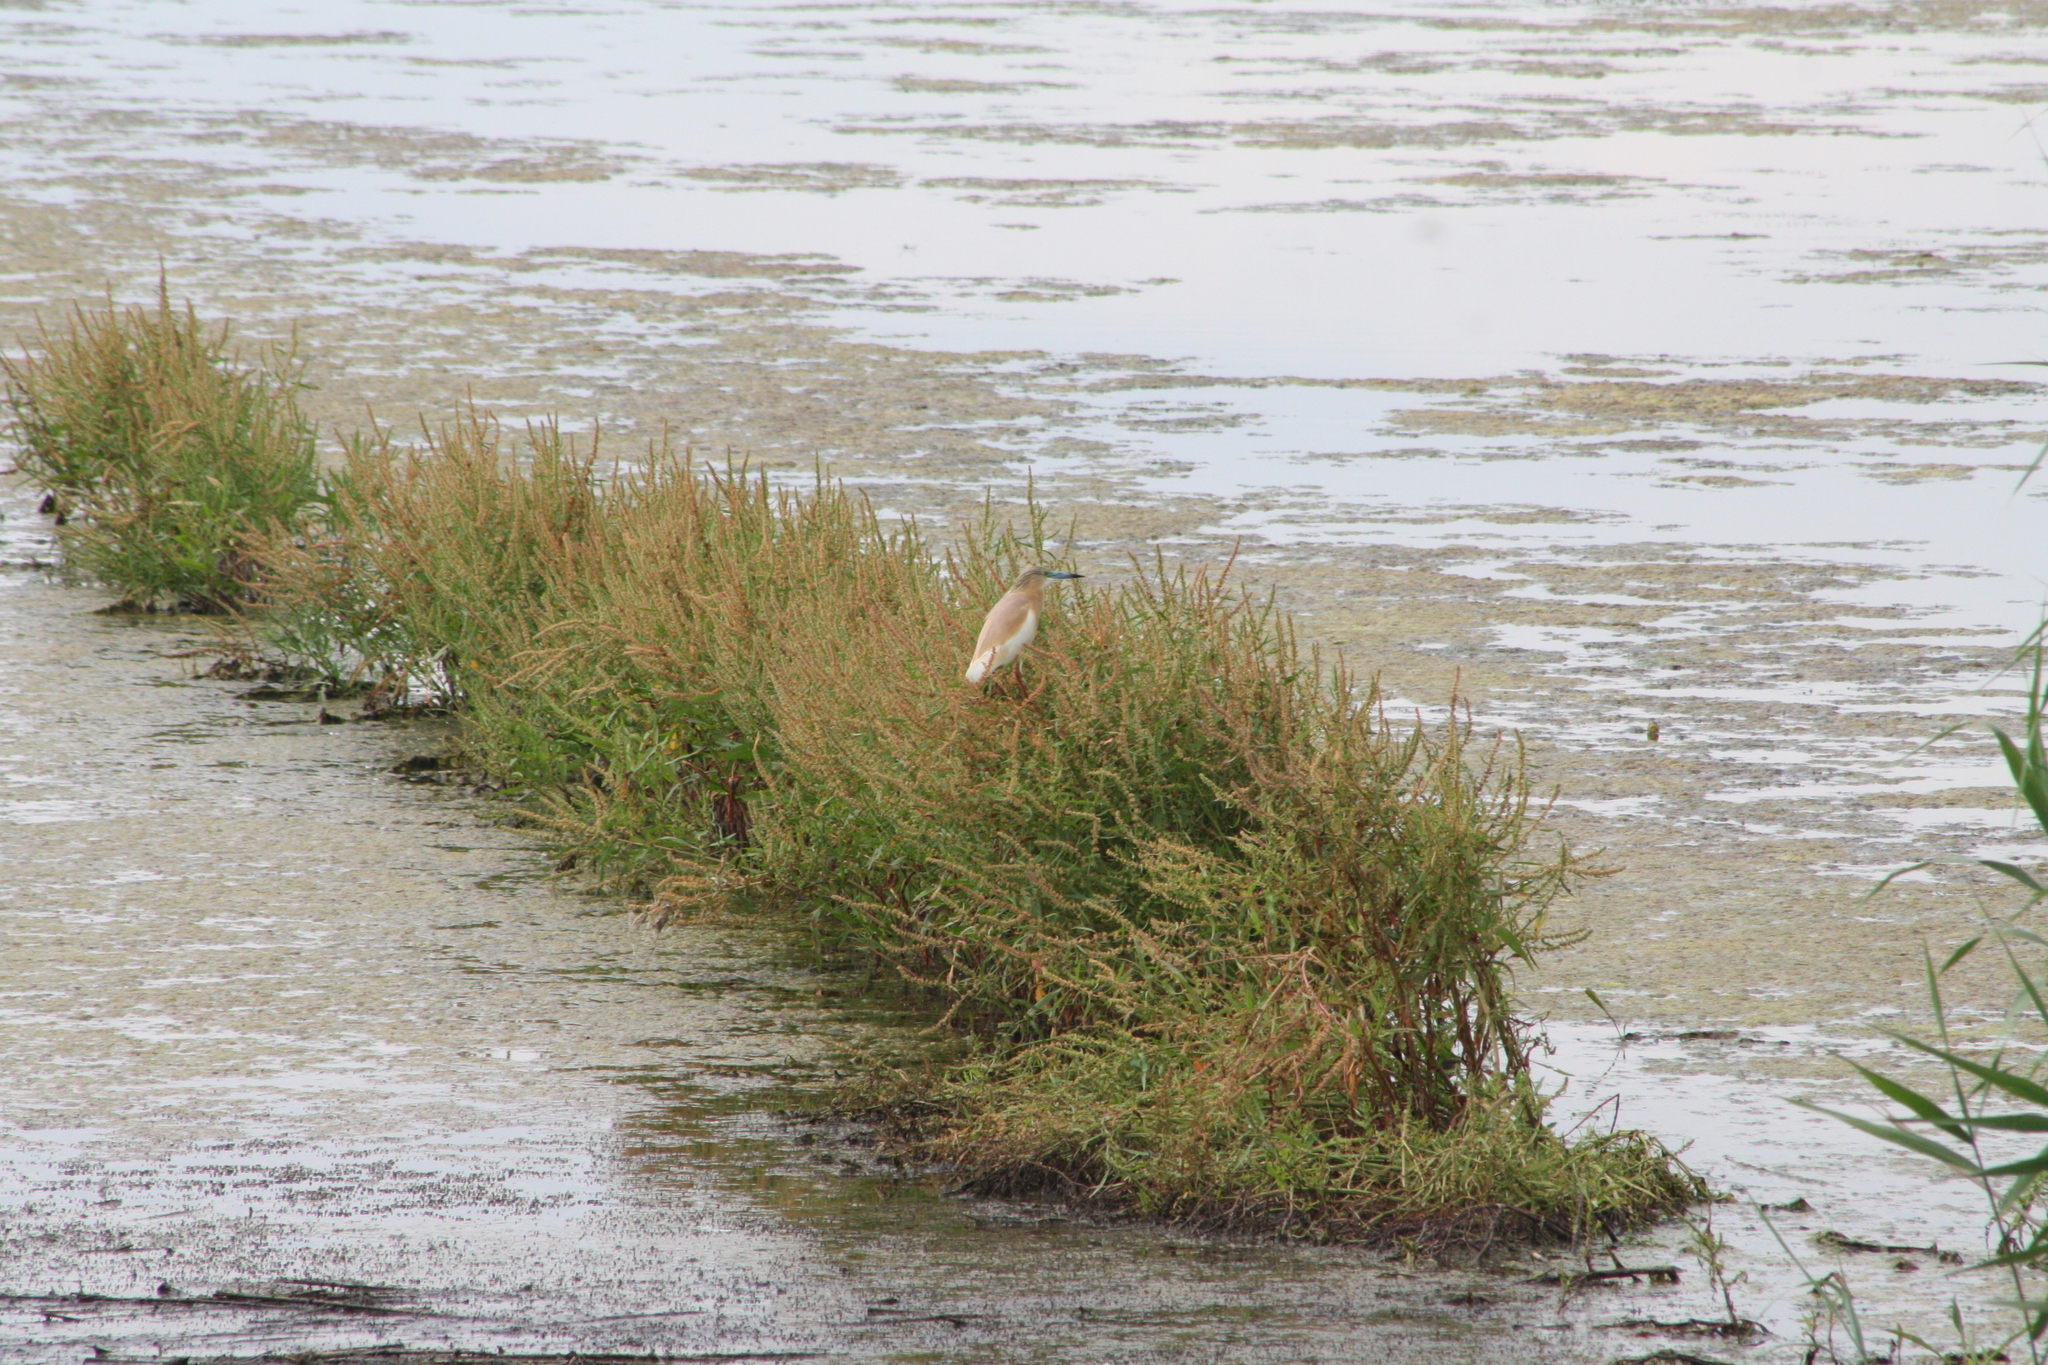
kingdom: Animalia
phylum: Chordata
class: Aves
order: Pelecaniformes
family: Ardeidae
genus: Ardeola
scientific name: Ardeola ralloides
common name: Squacco heron
